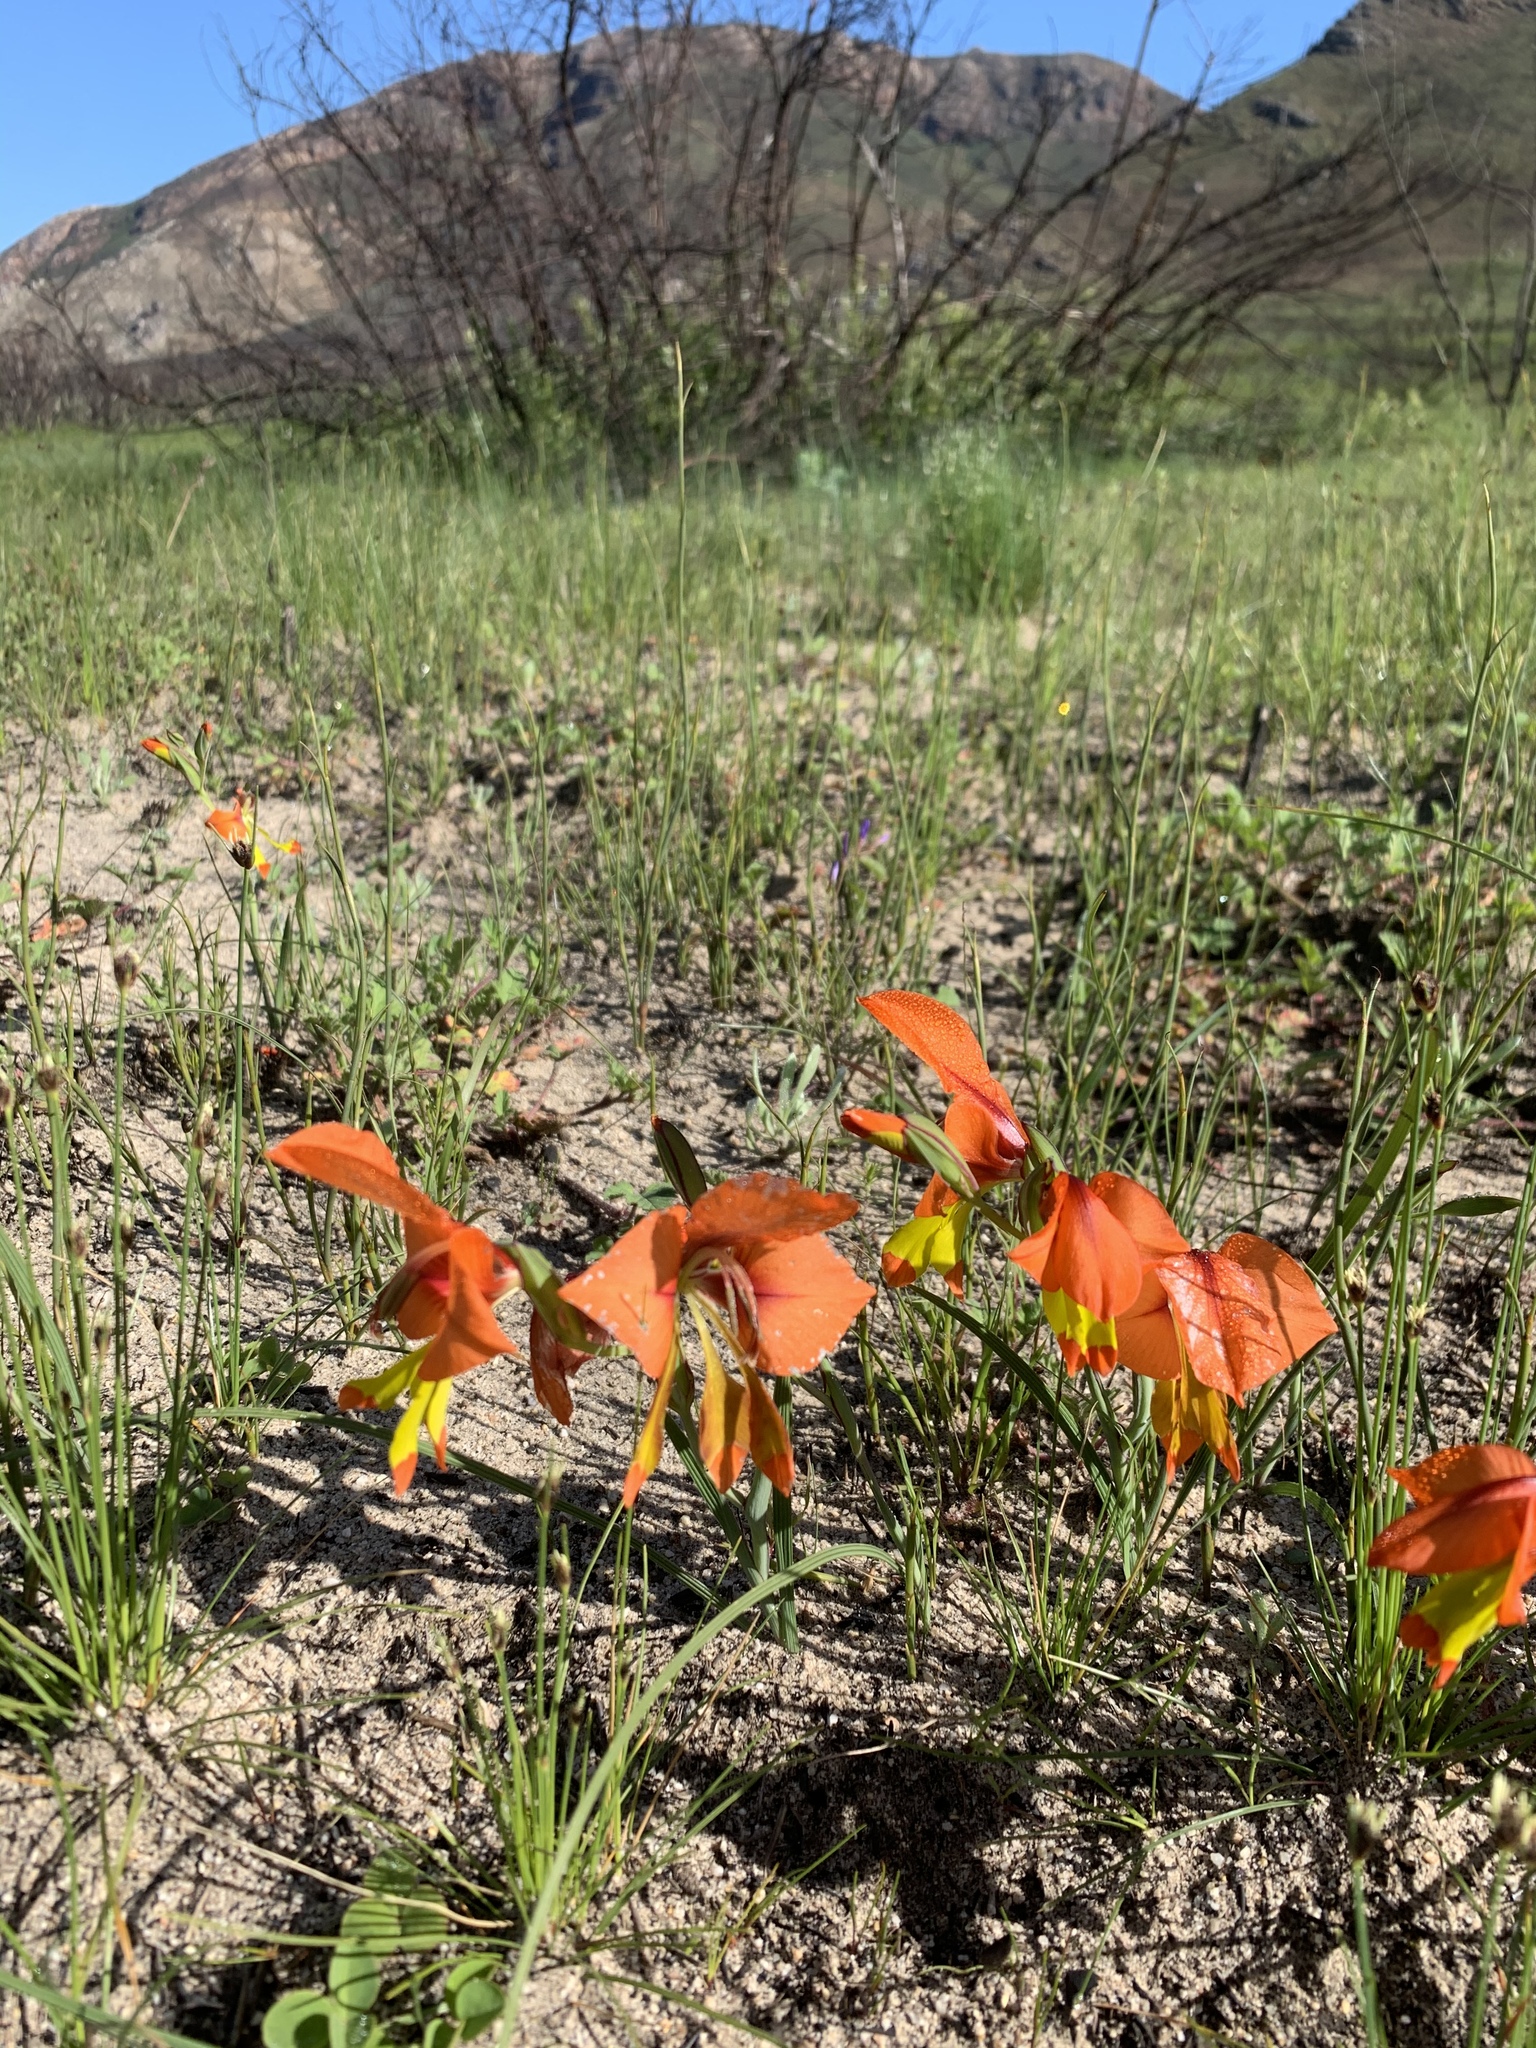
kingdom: Plantae
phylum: Tracheophyta
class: Liliopsida
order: Asparagales
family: Iridaceae
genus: Gladiolus
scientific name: Gladiolus alatus
